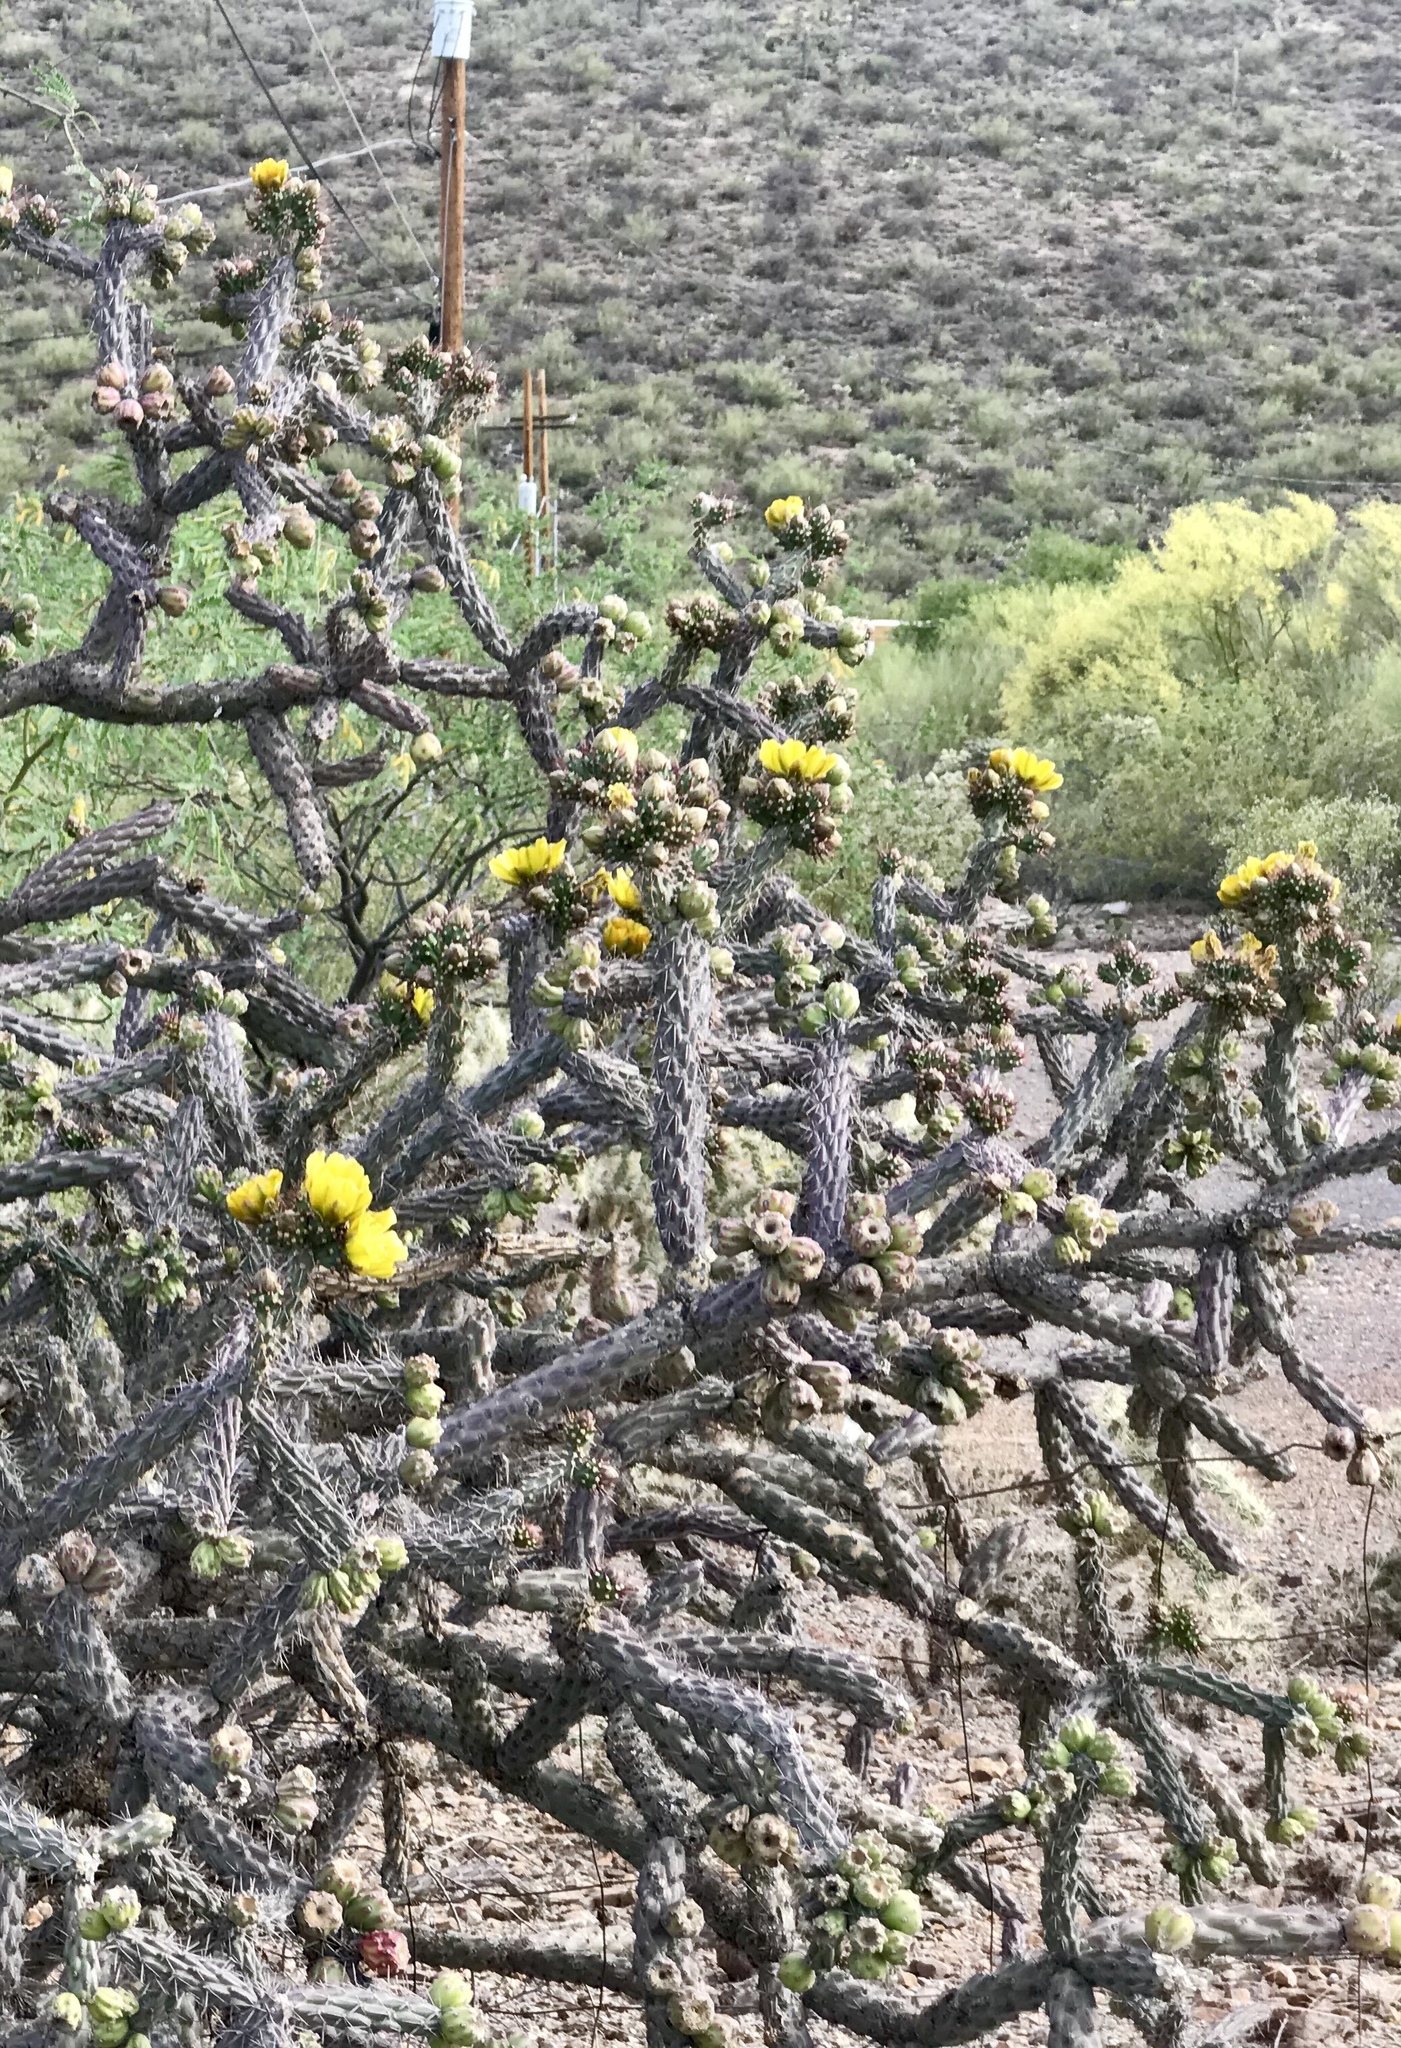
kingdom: Plantae
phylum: Tracheophyta
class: Magnoliopsida
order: Caryophyllales
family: Cactaceae
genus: Cylindropuntia
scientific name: Cylindropuntia thurberi
